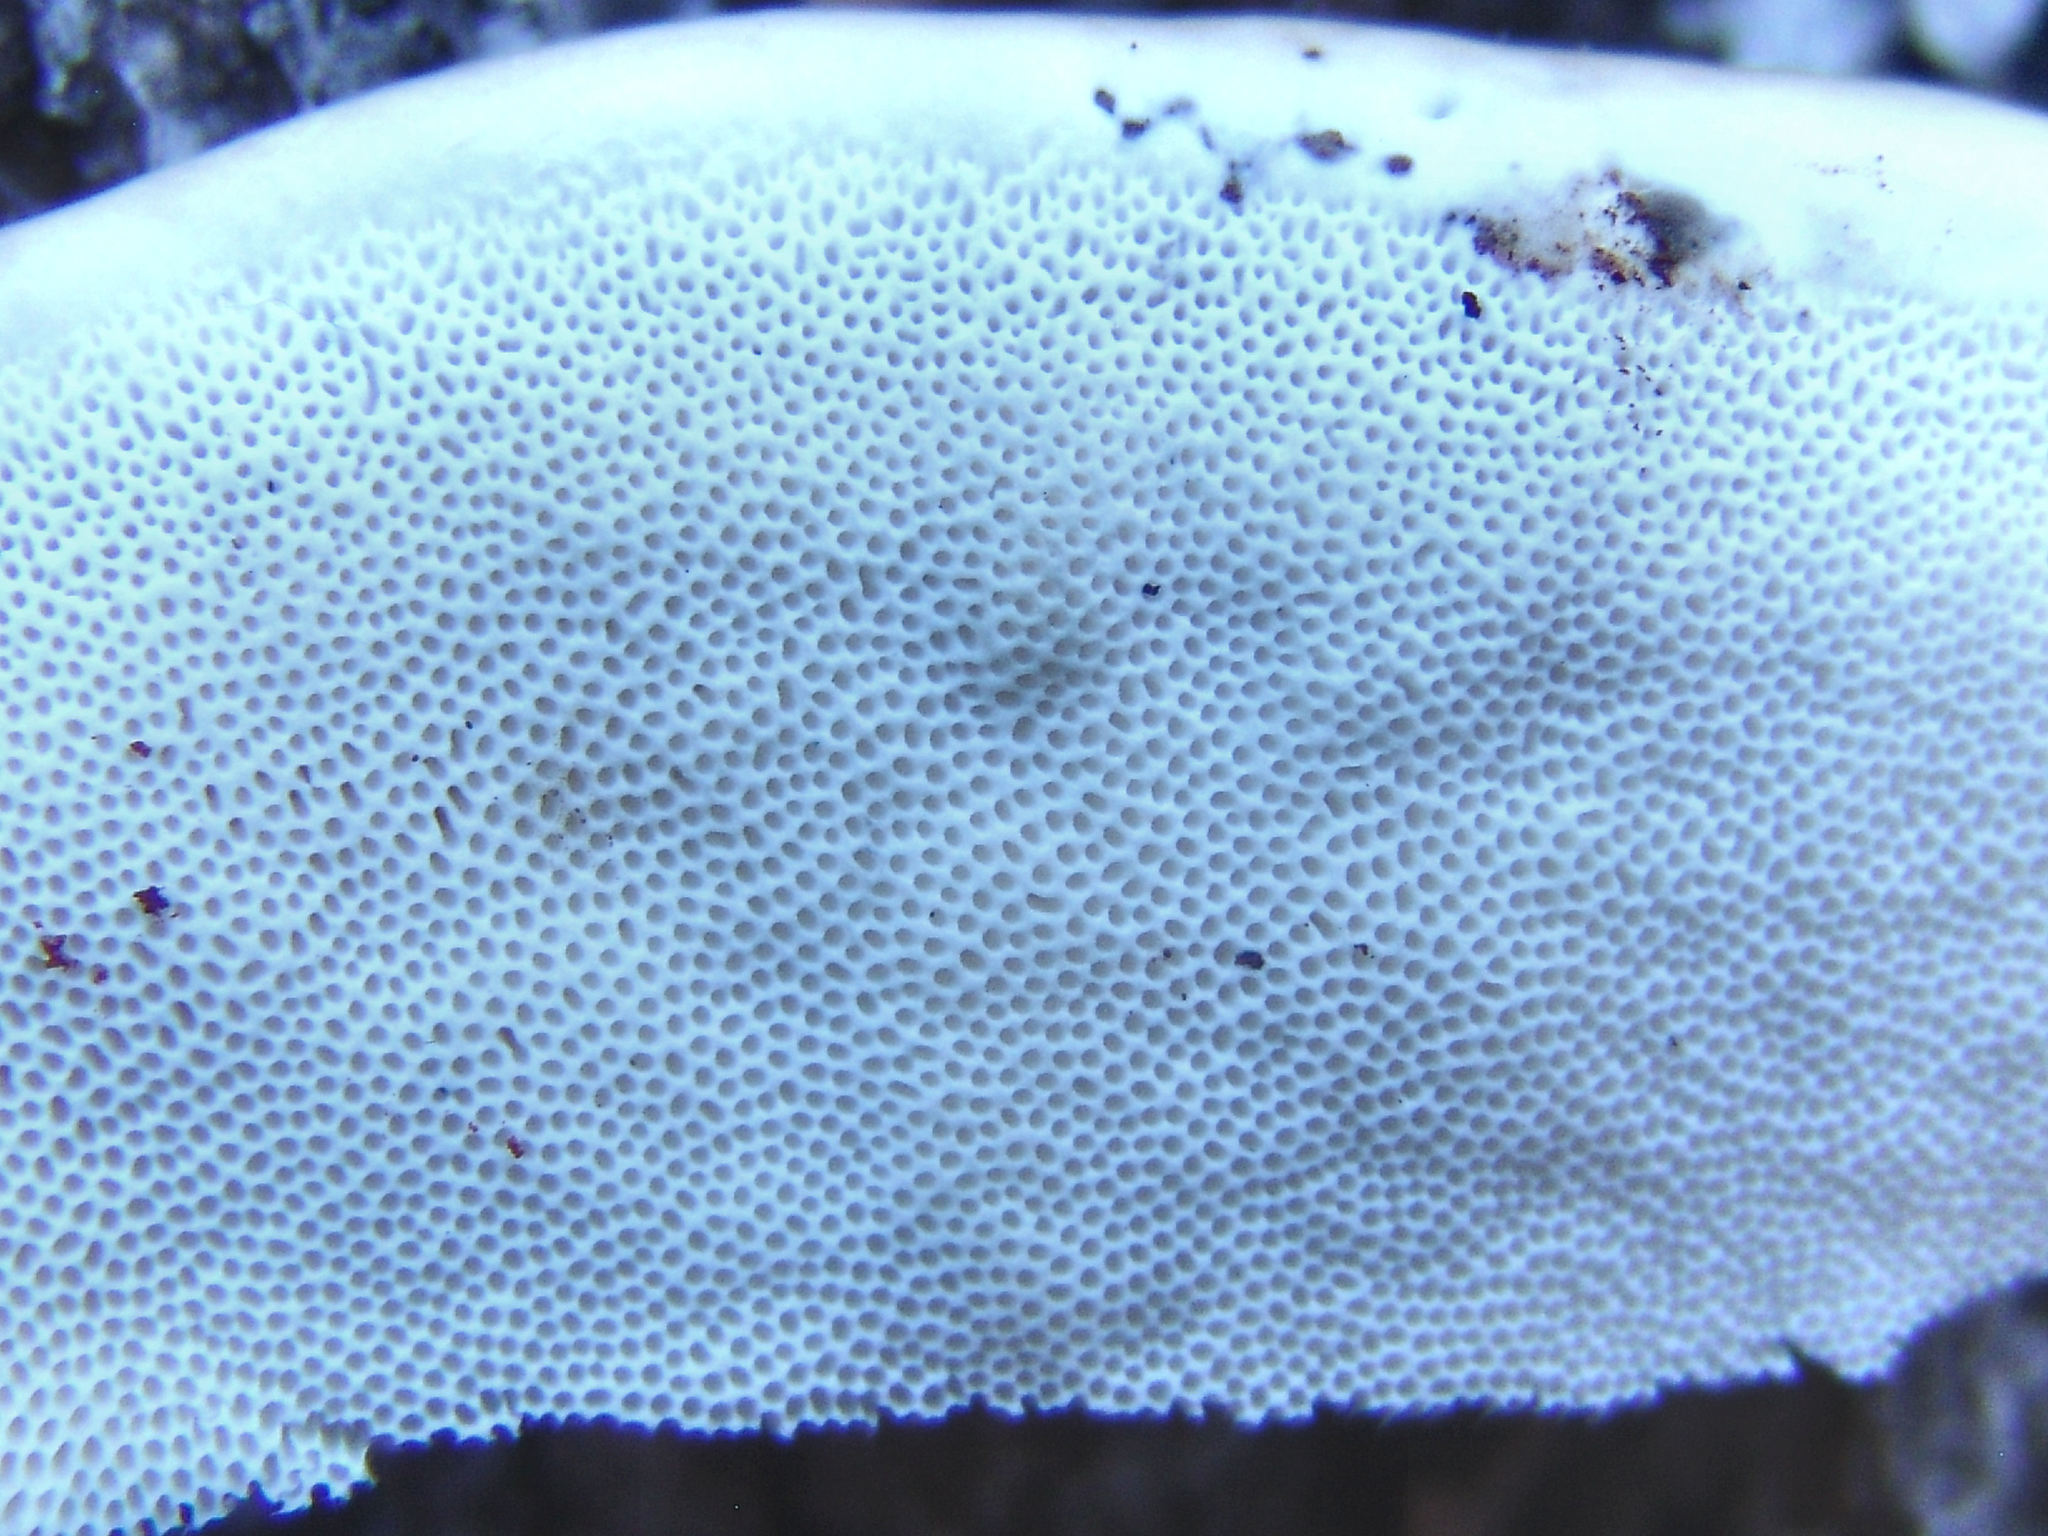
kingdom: Fungi
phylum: Basidiomycota
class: Agaricomycetes
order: Polyporales
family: Polyporaceae
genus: Trametes
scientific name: Trametes lactinea
